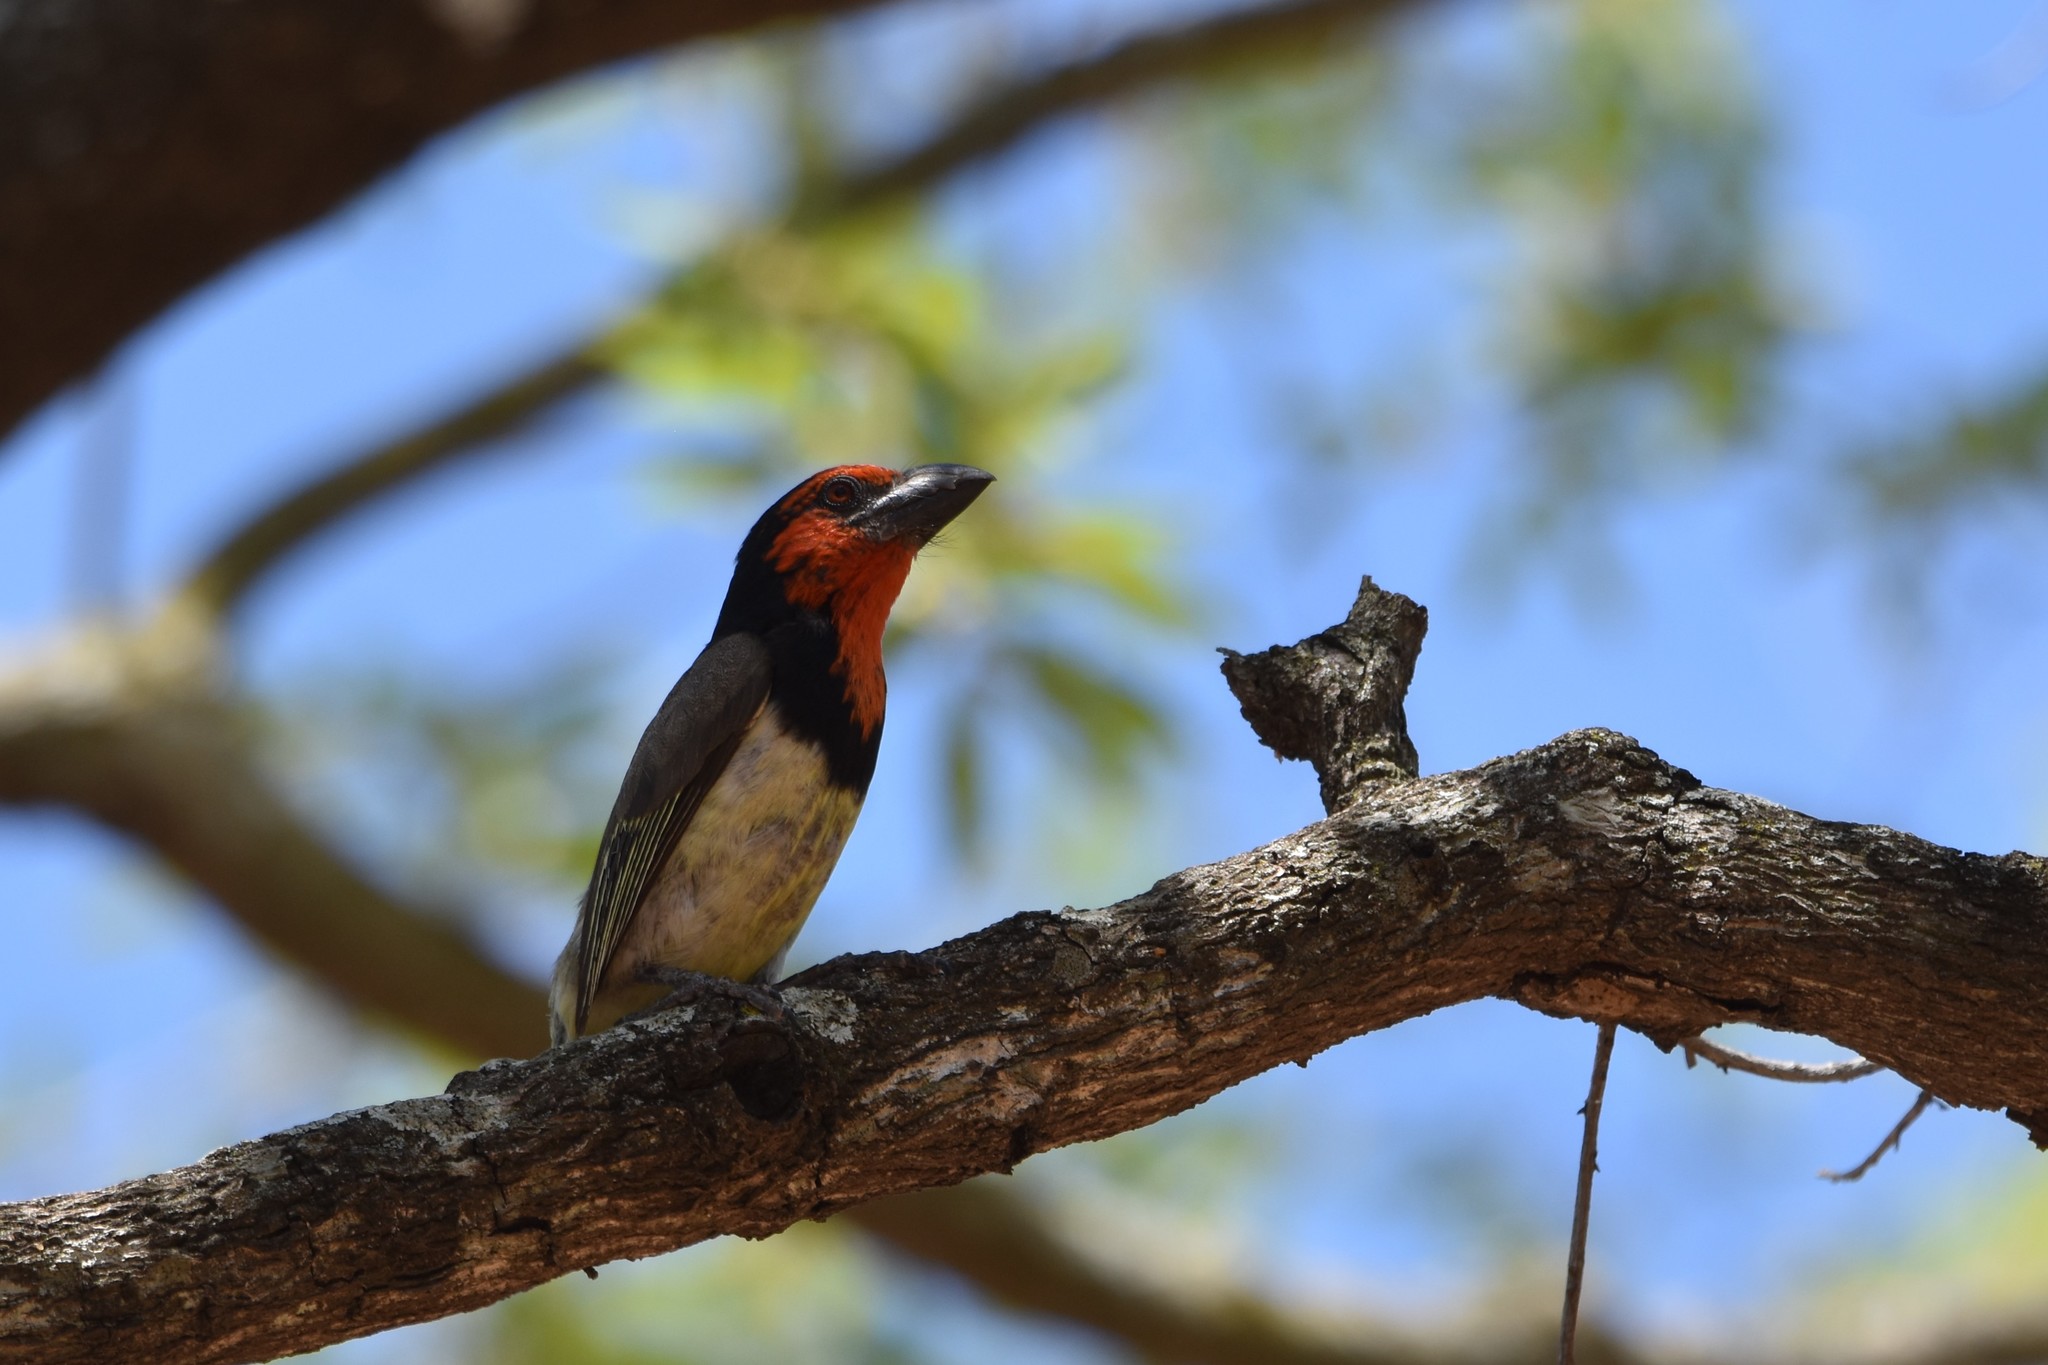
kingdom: Animalia
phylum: Chordata
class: Aves
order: Piciformes
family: Lybiidae
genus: Lybius
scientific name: Lybius torquatus
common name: Black-collared barbet
